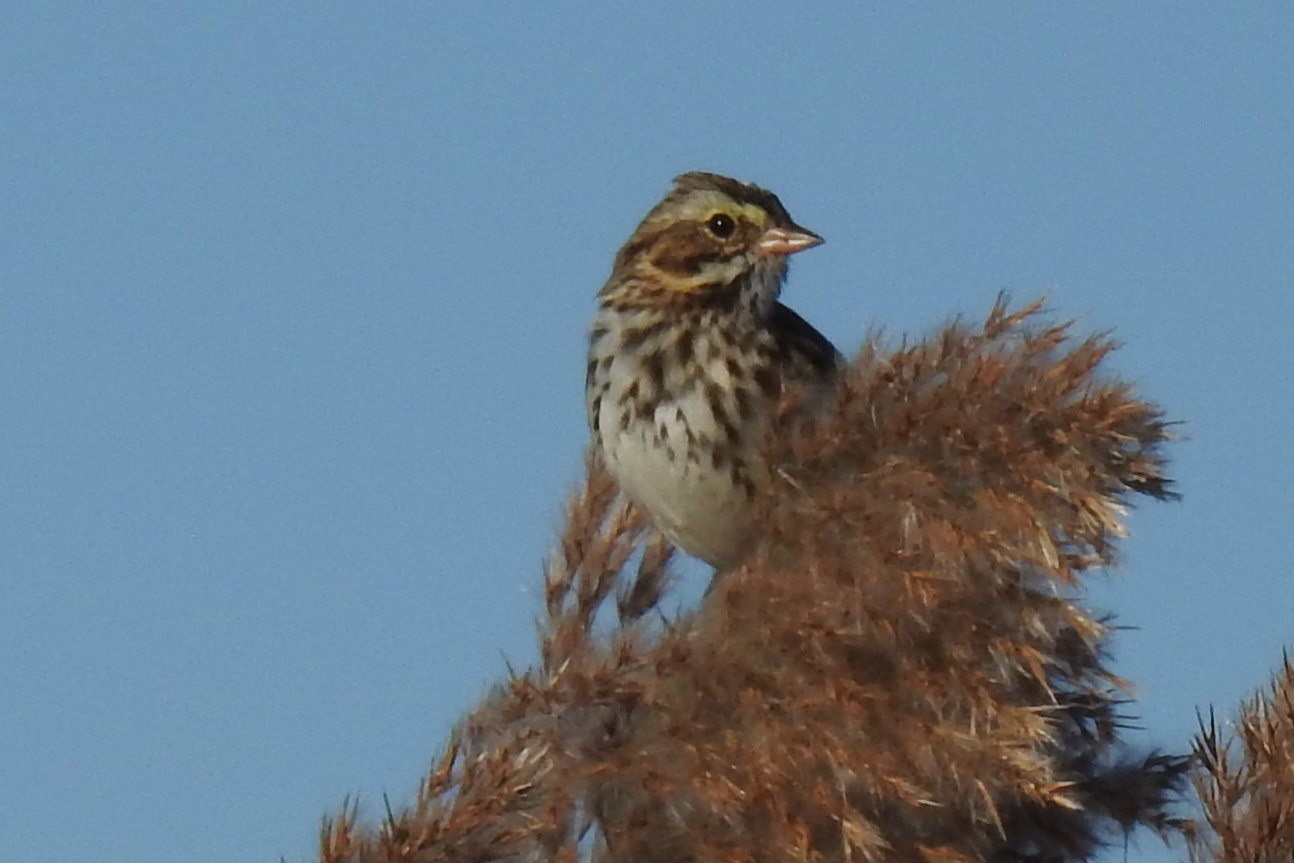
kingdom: Animalia
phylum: Chordata
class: Aves
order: Passeriformes
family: Passerellidae
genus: Passerculus
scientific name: Passerculus sandwichensis
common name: Savannah sparrow
